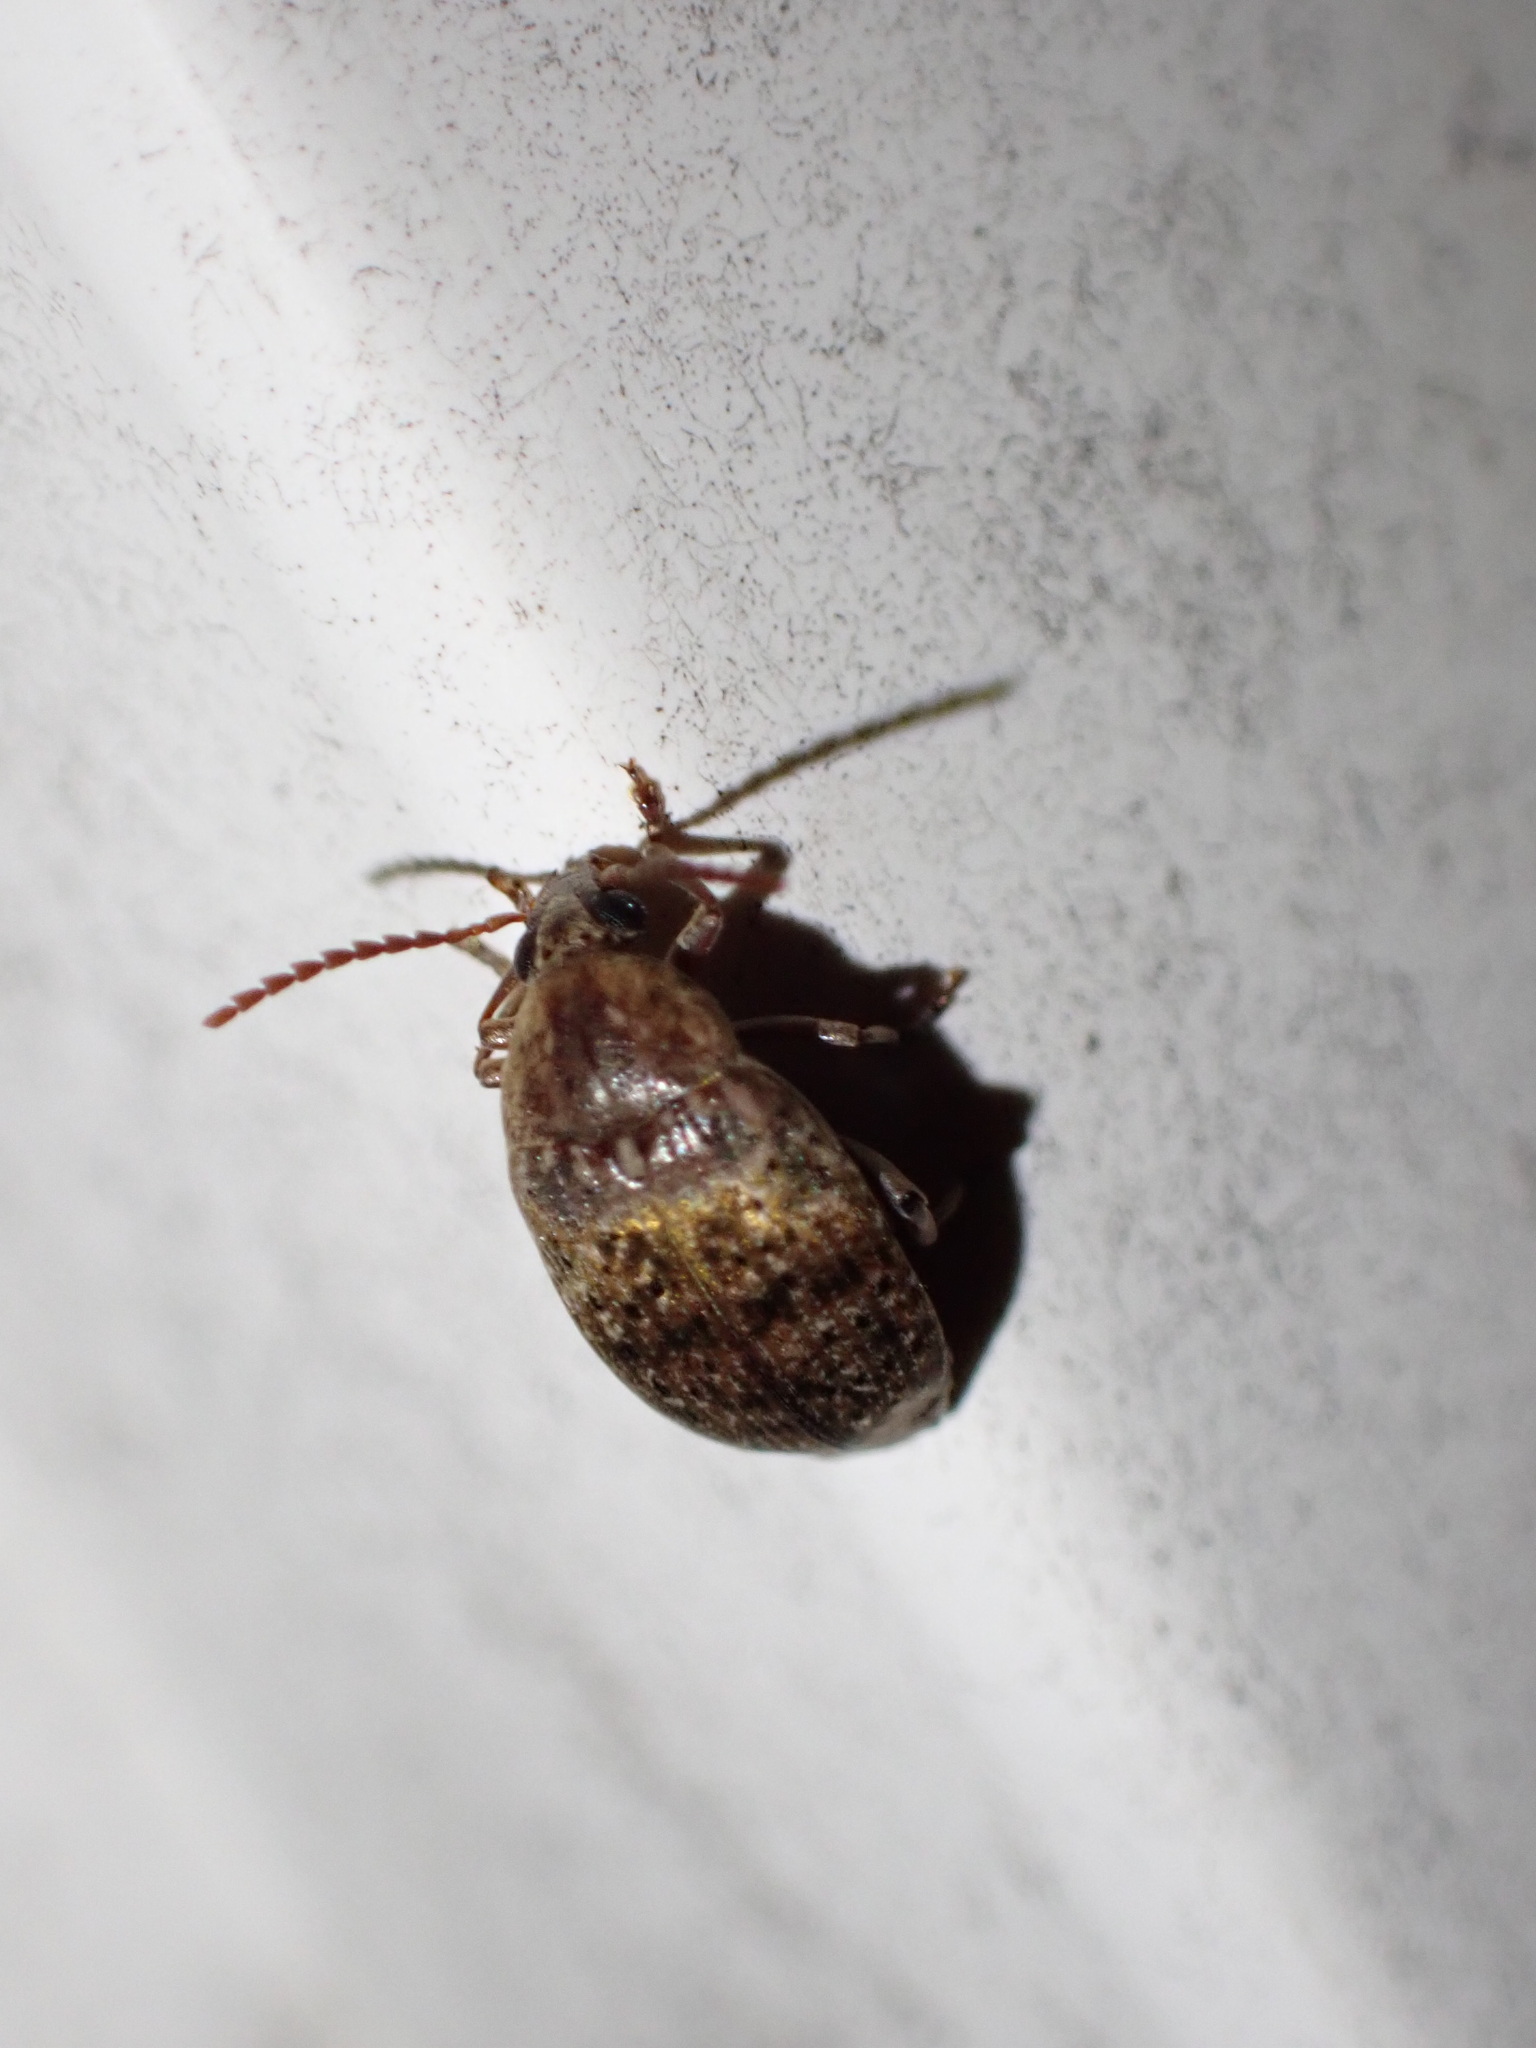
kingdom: Animalia
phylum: Arthropoda
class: Insecta
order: Coleoptera
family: Chrysomelidae
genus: Amblycerus
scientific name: Amblycerus robiniae
